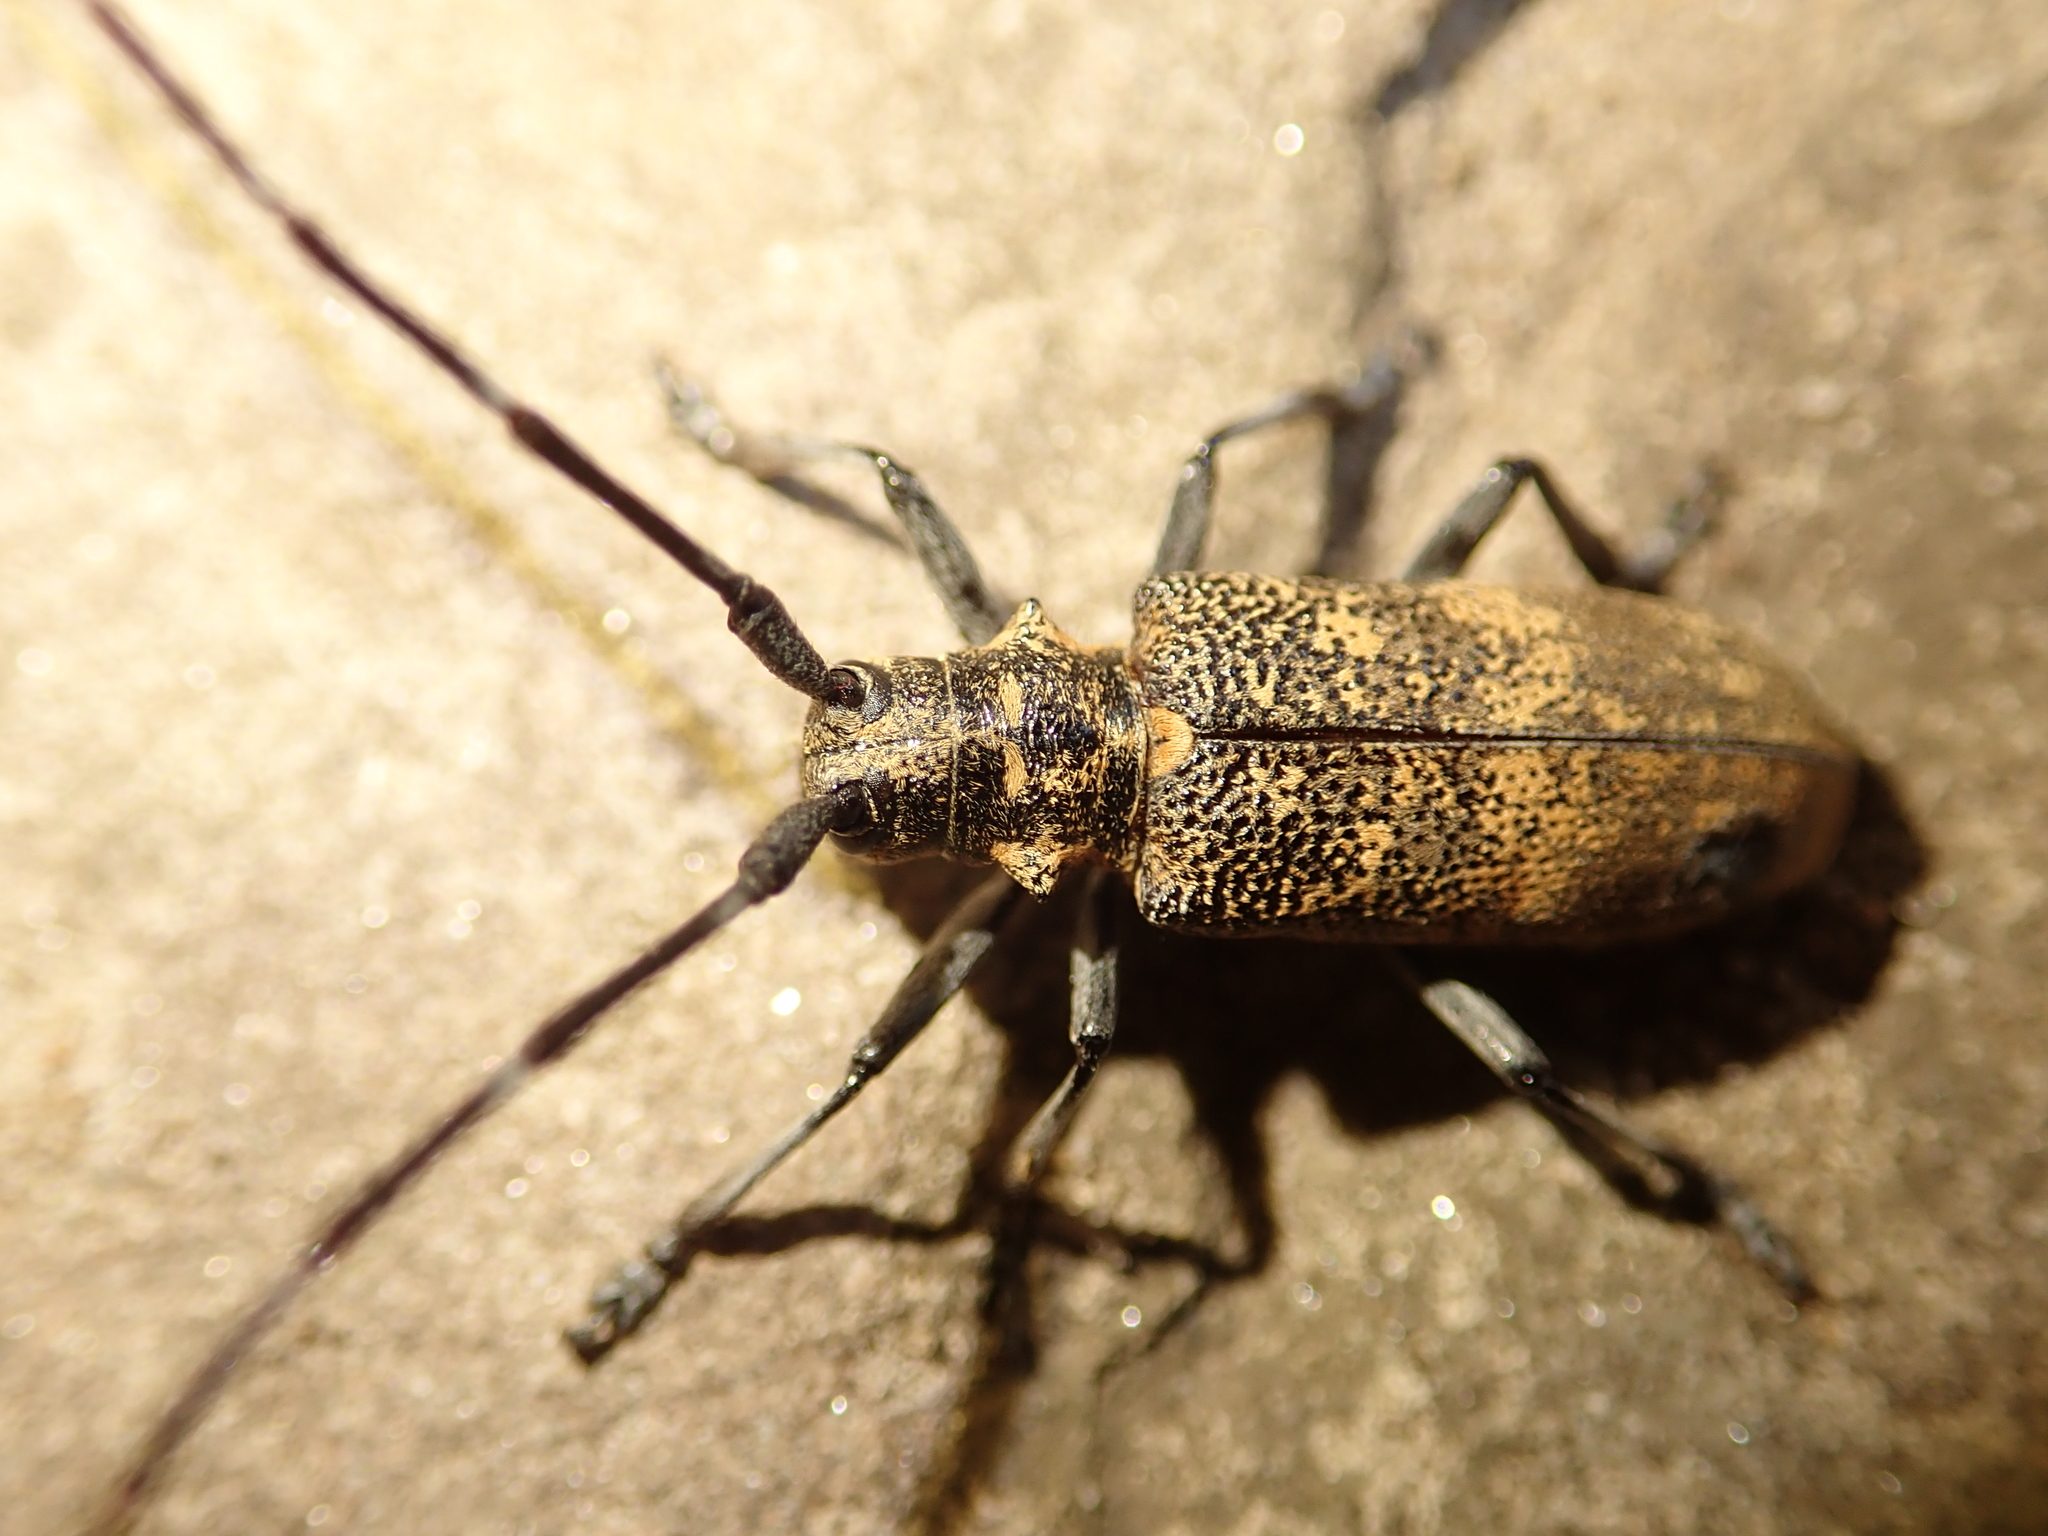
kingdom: Animalia
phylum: Arthropoda
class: Insecta
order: Coleoptera
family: Cerambycidae
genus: Monochamus
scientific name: Monochamus galloprovincialis
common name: Pine sawyer
